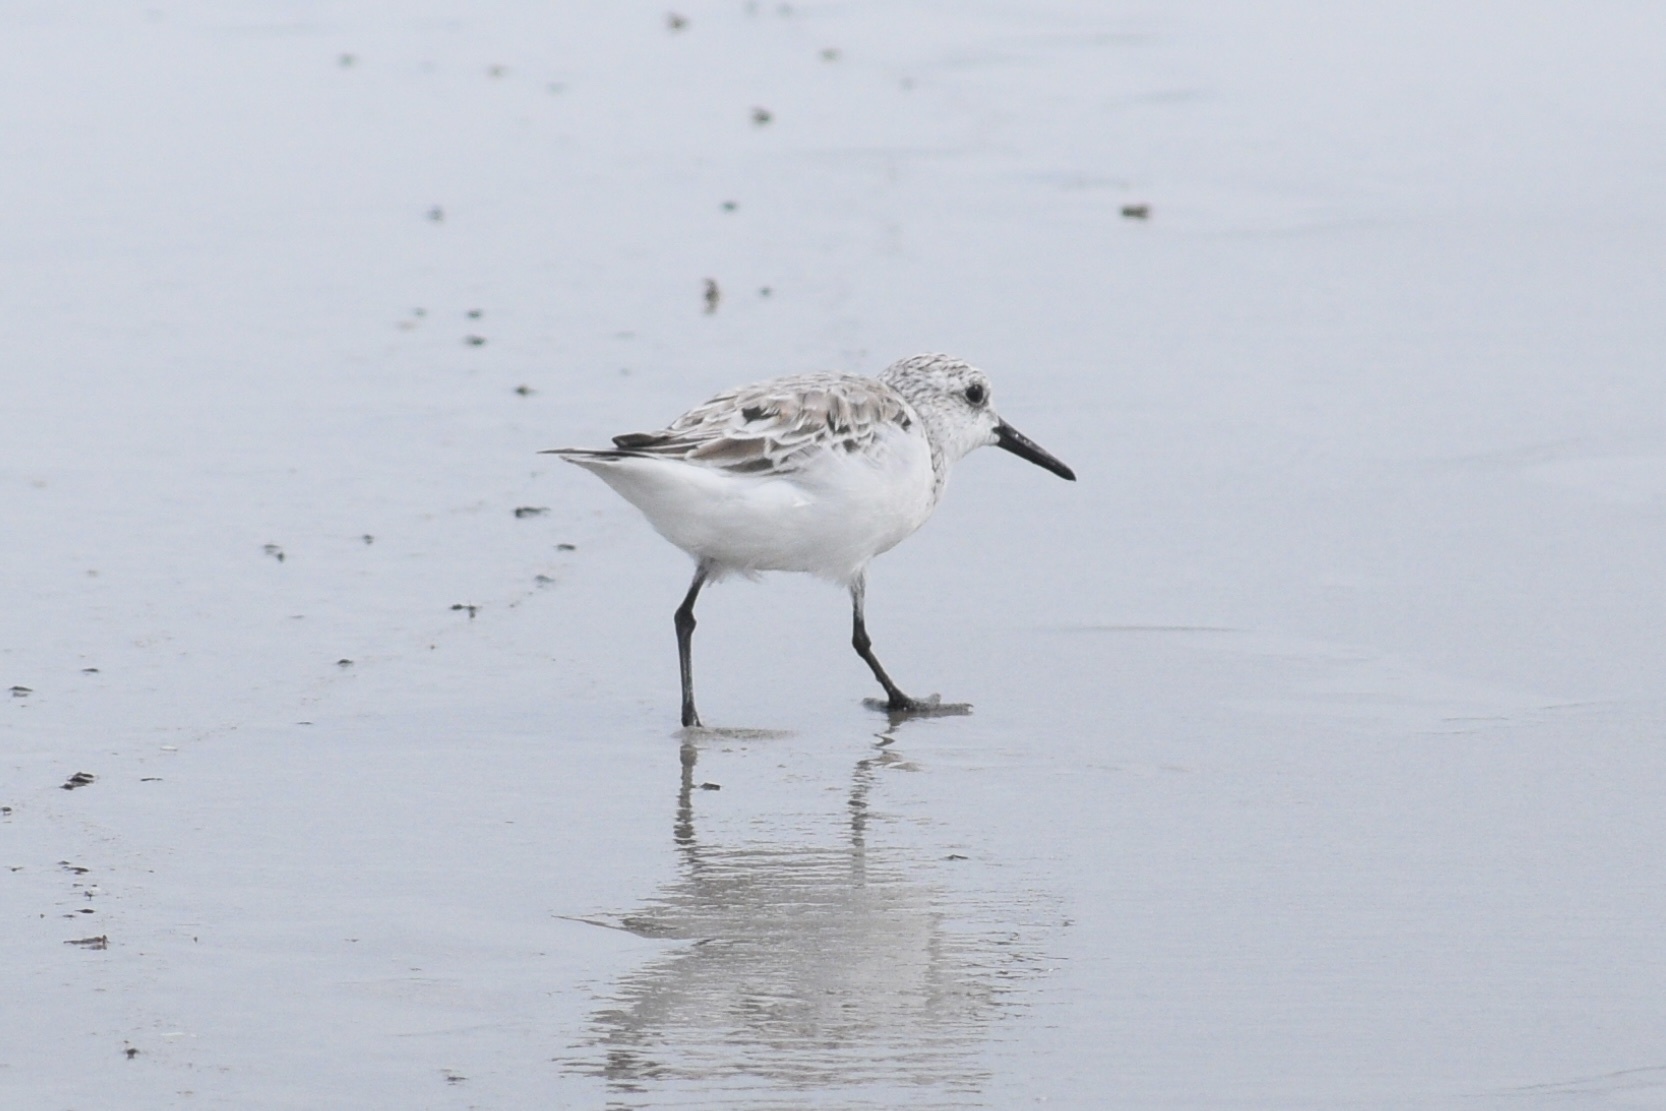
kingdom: Animalia
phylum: Chordata
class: Aves
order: Charadriiformes
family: Scolopacidae
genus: Calidris
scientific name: Calidris alba
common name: Sanderling
